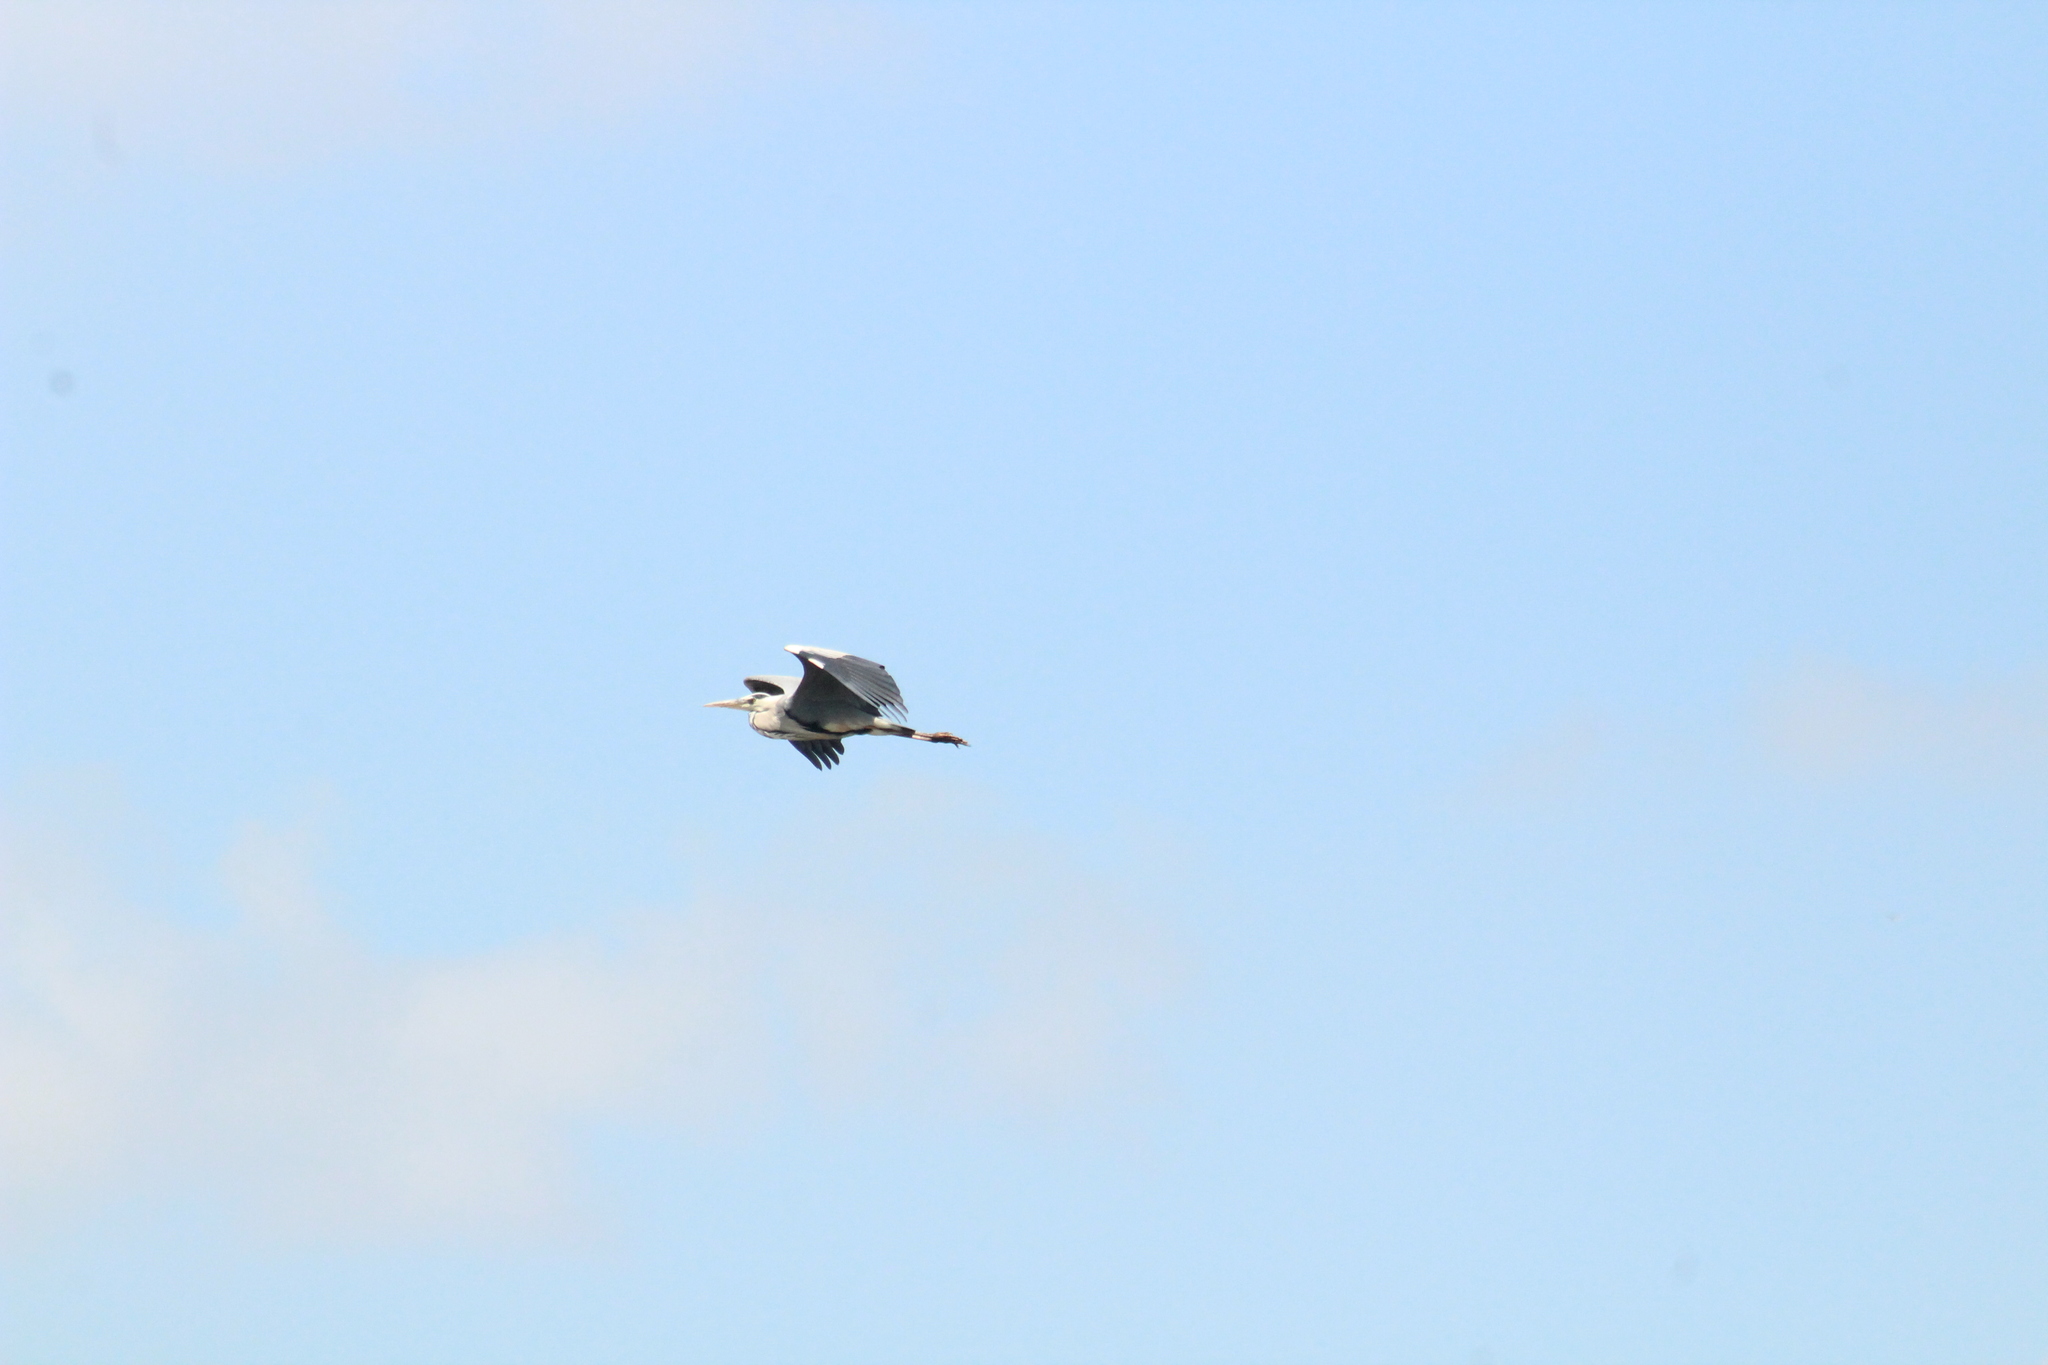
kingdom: Animalia
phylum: Chordata
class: Aves
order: Pelecaniformes
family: Ardeidae
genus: Ardea
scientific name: Ardea cinerea
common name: Grey heron
